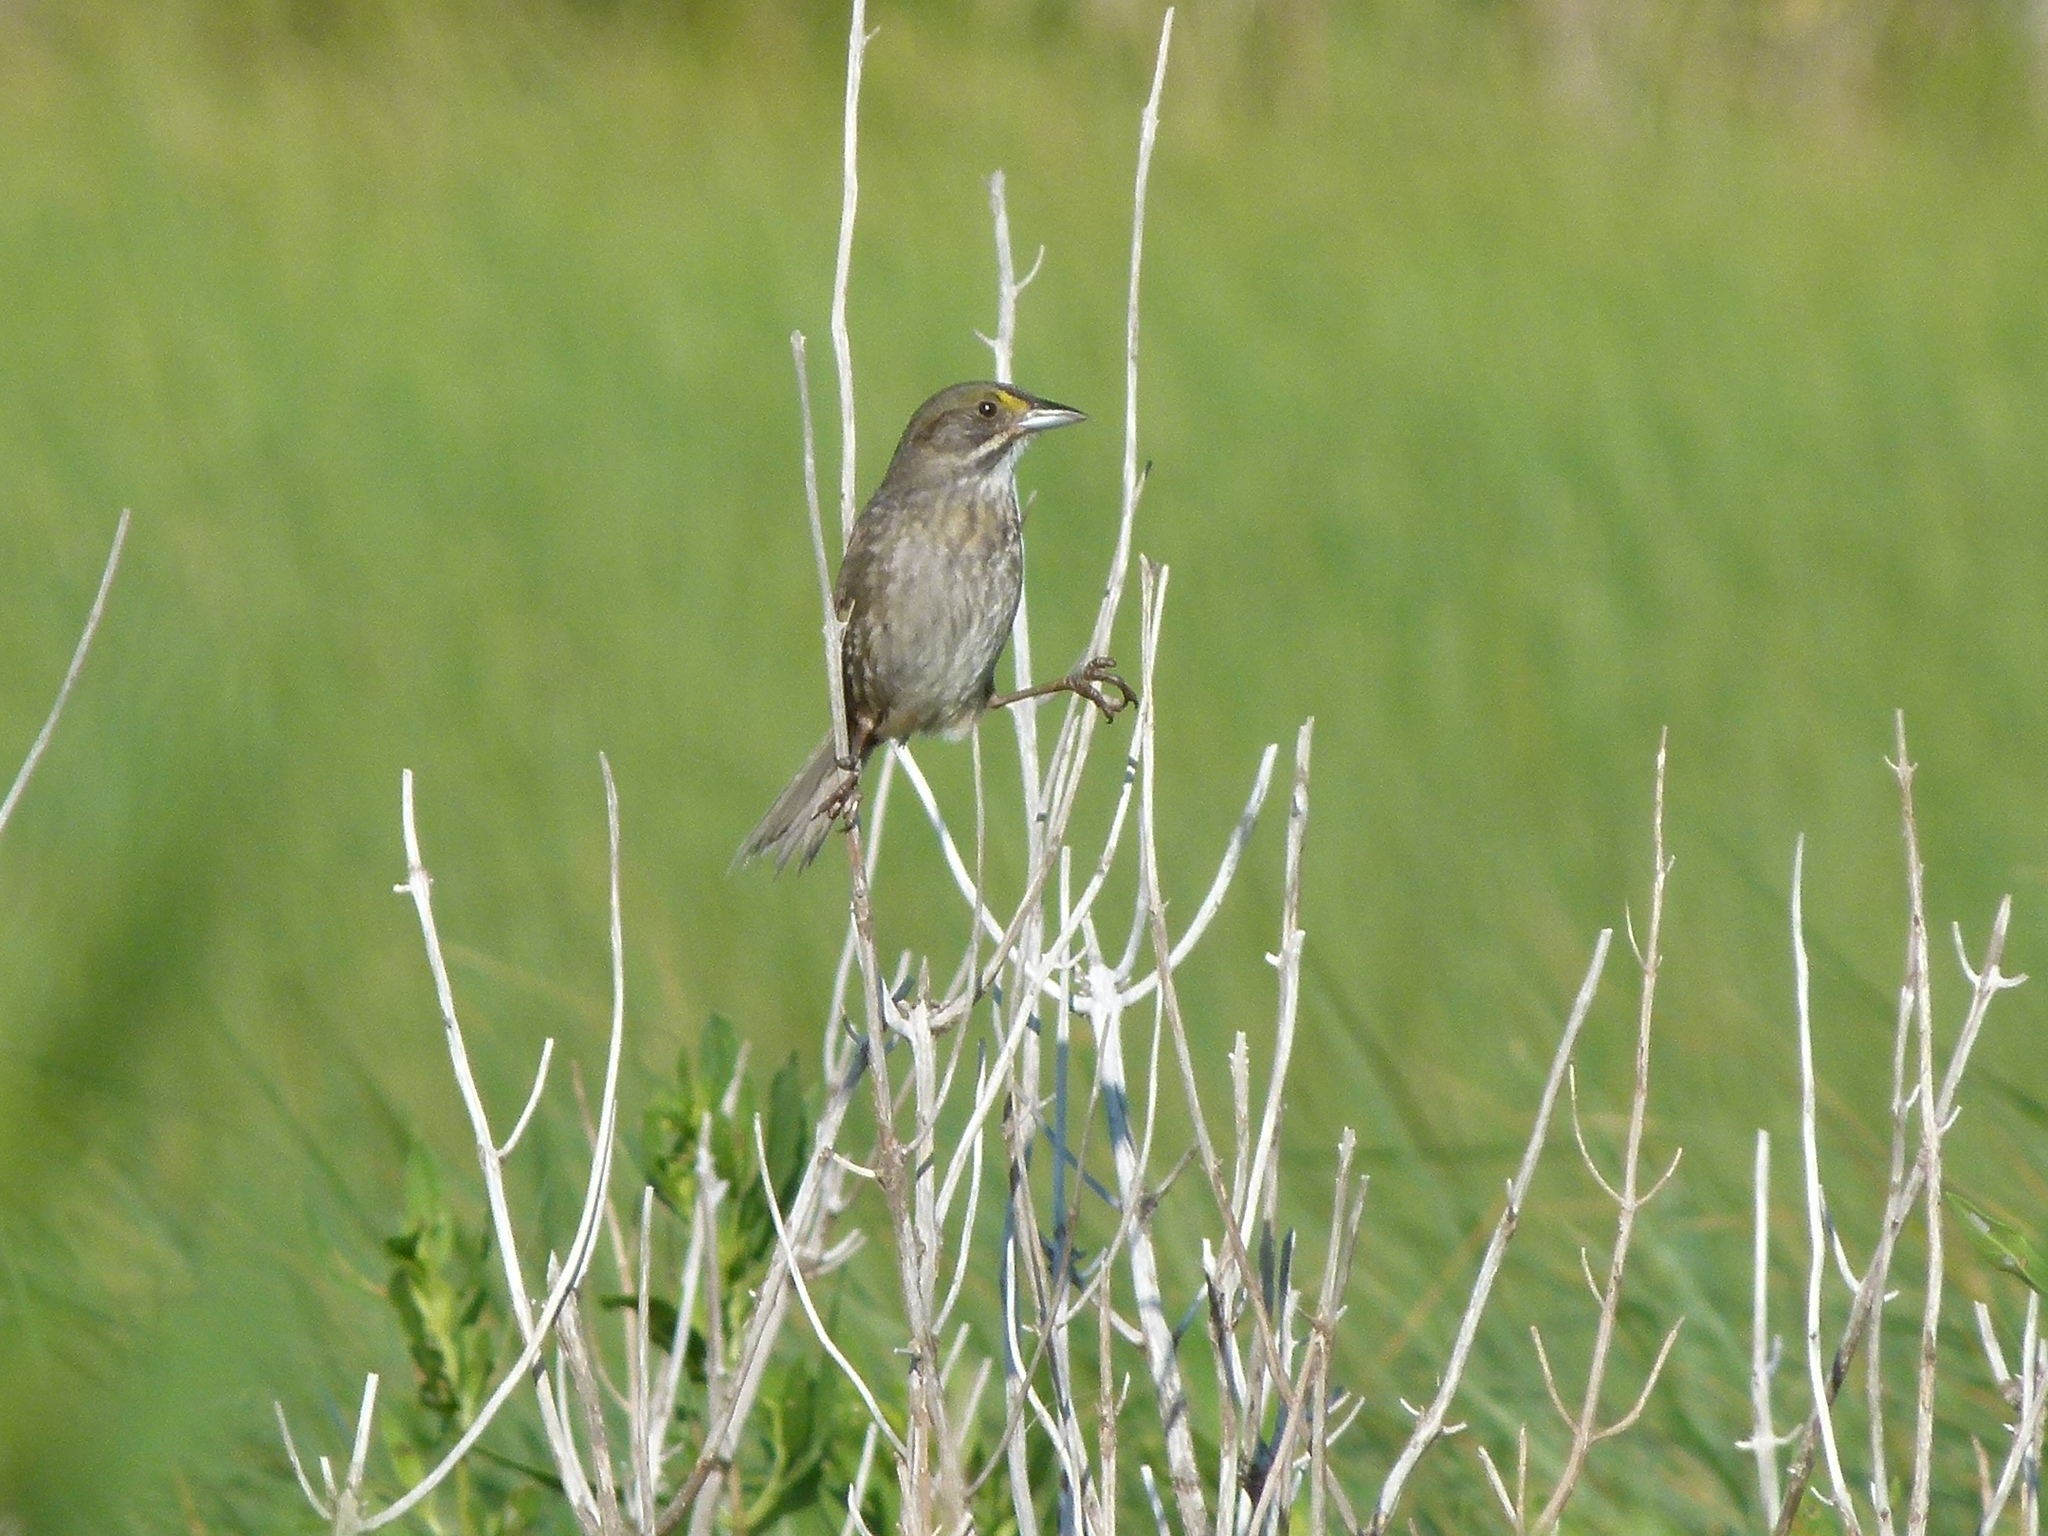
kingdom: Animalia
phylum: Chordata
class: Aves
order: Passeriformes
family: Passerellidae
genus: Ammospiza
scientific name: Ammospiza maritima
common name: Seaside sparrow
